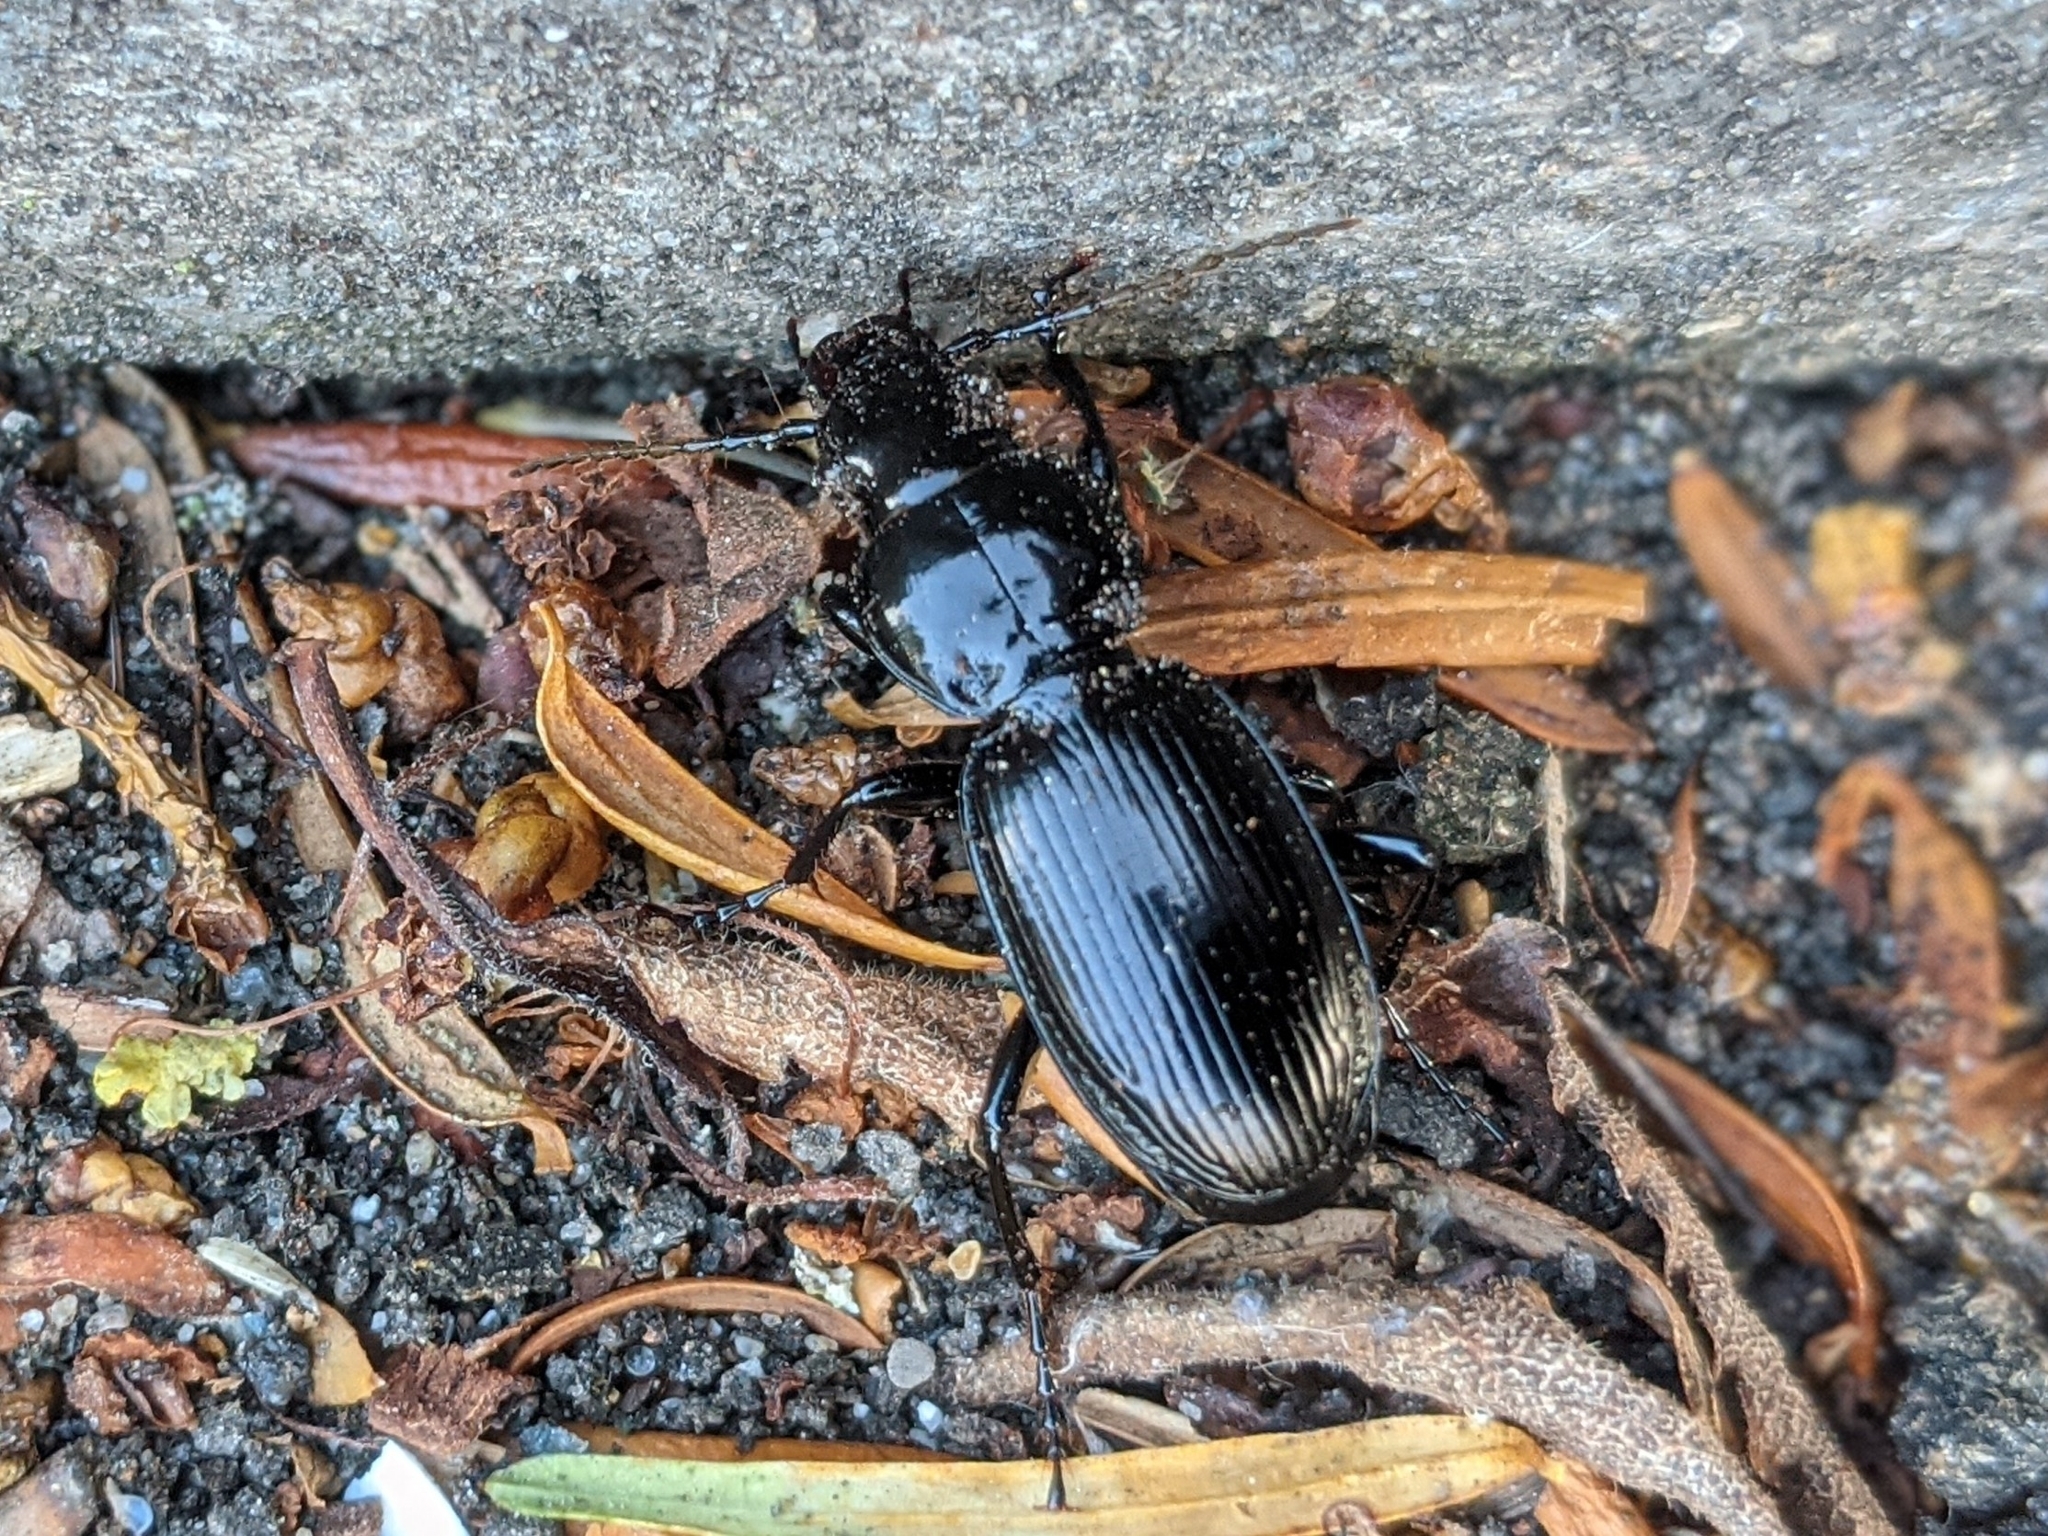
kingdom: Animalia
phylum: Arthropoda
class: Insecta
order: Coleoptera
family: Carabidae
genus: Pterostichus
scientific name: Pterostichus madidus
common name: Black clock
